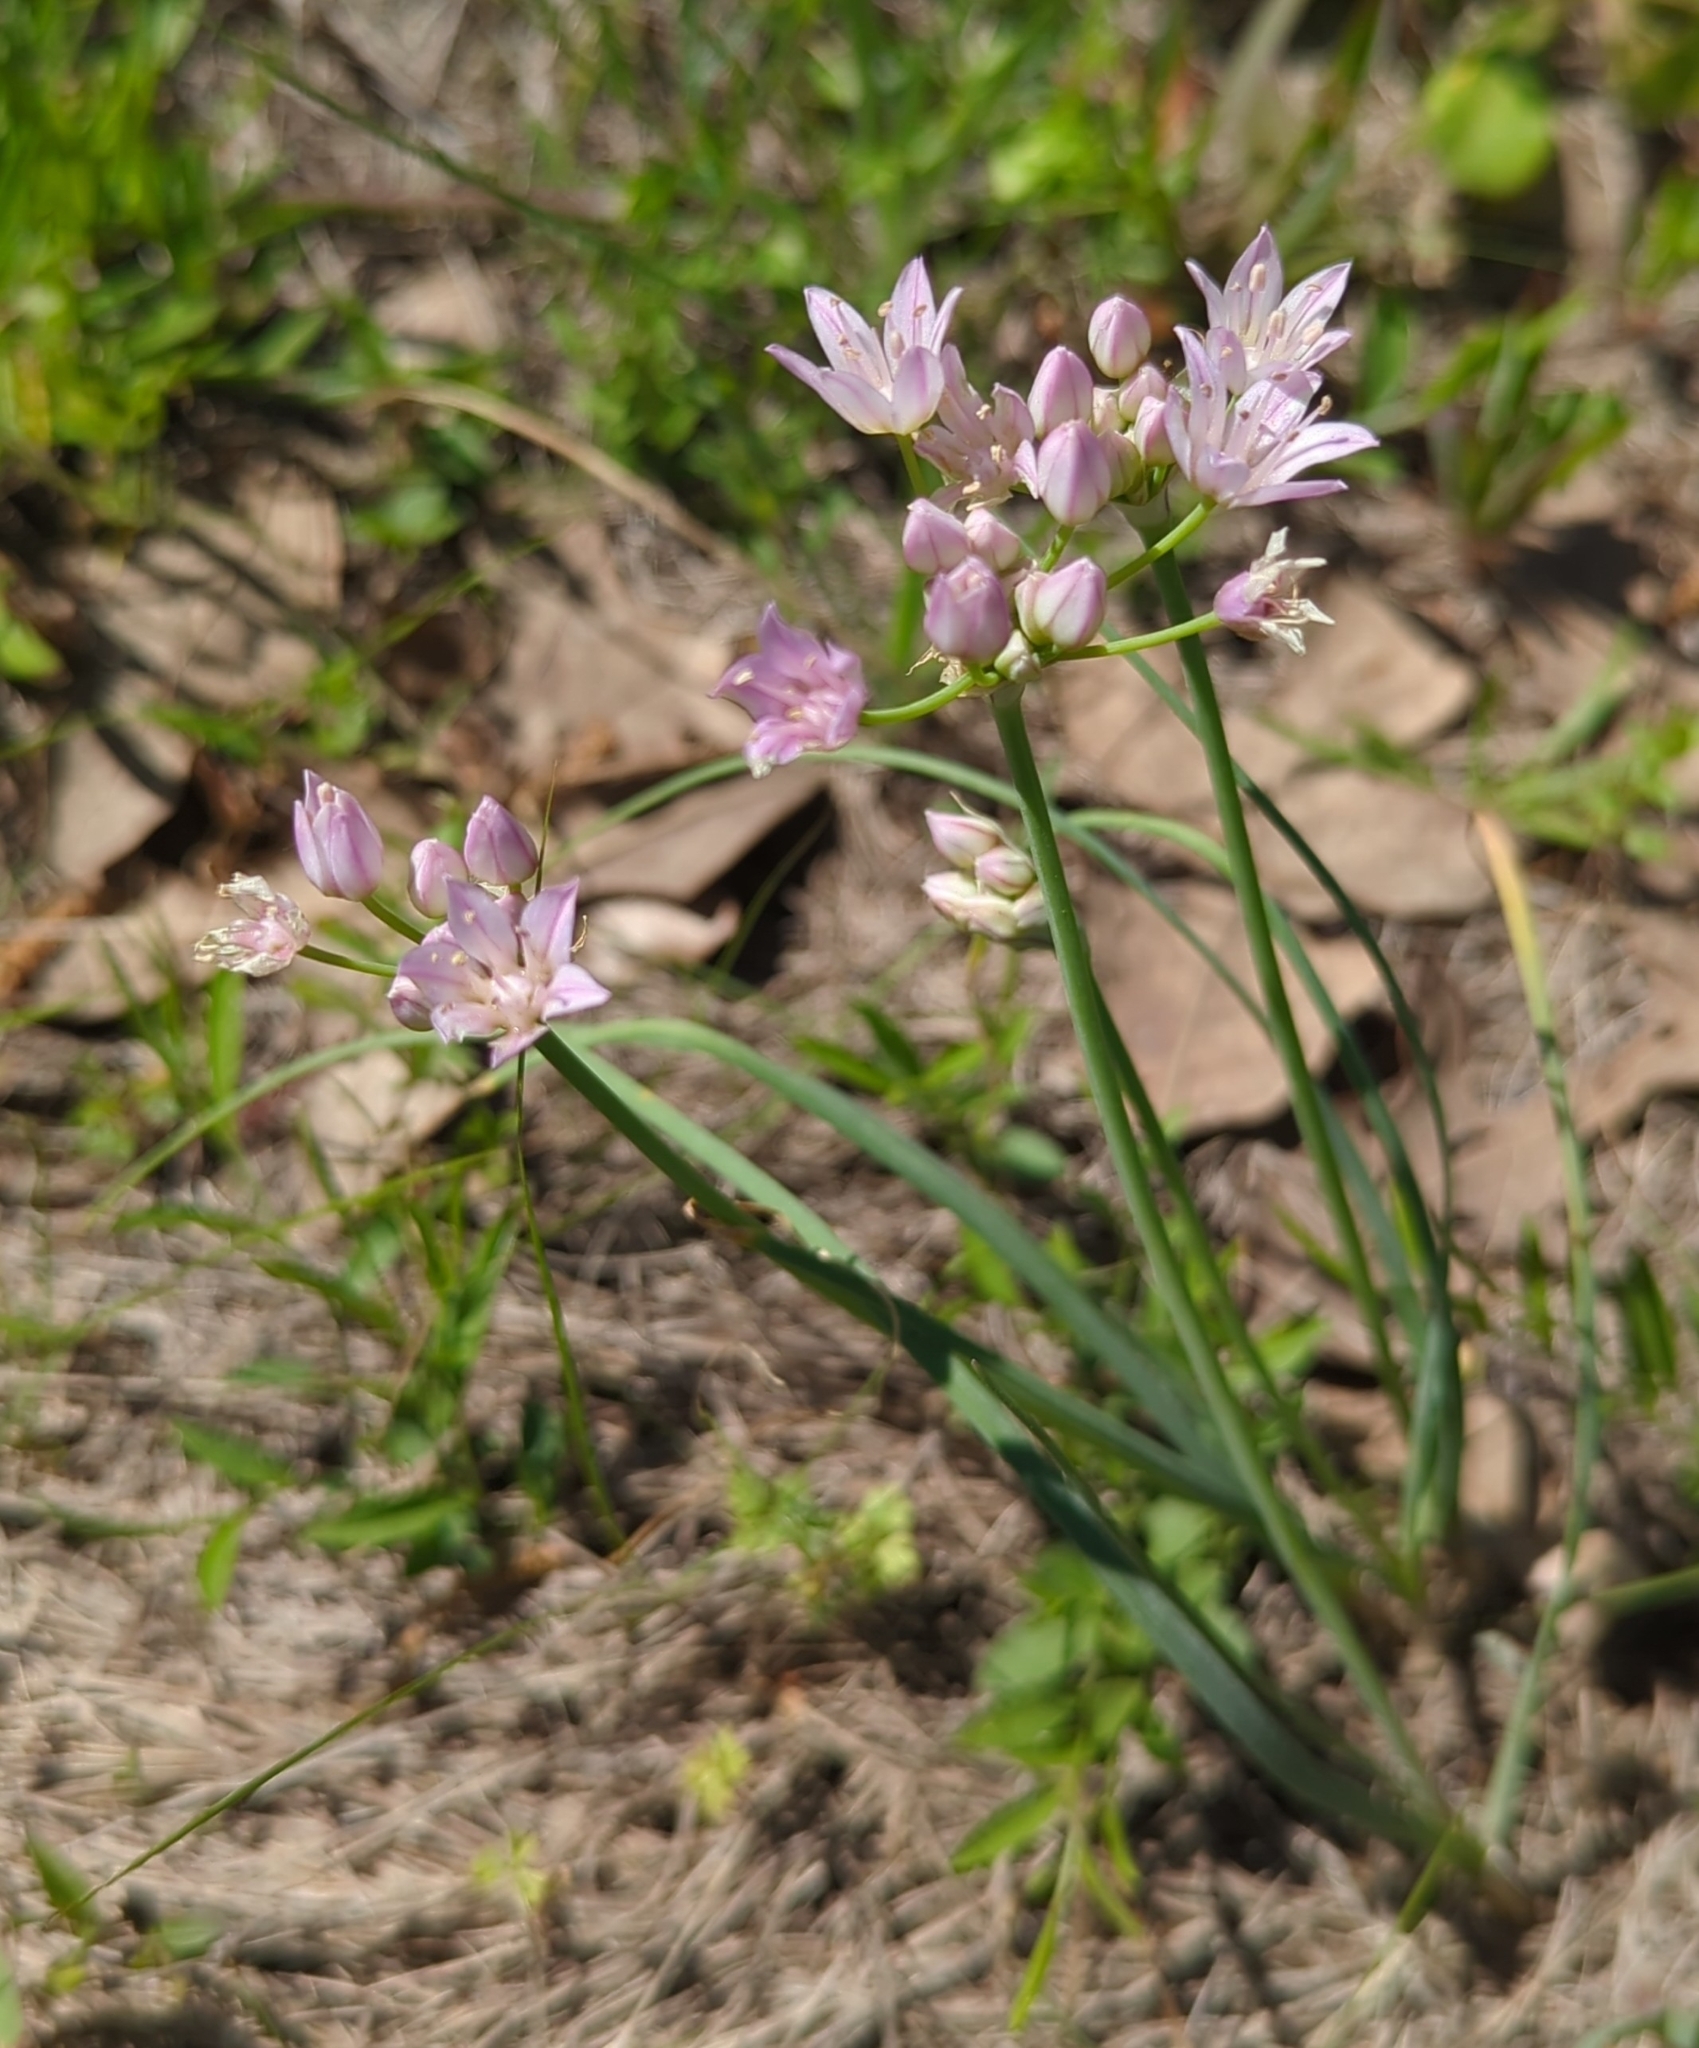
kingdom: Plantae
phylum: Tracheophyta
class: Liliopsida
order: Asparagales
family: Amaryllidaceae
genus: Allium
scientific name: Allium drummondii
